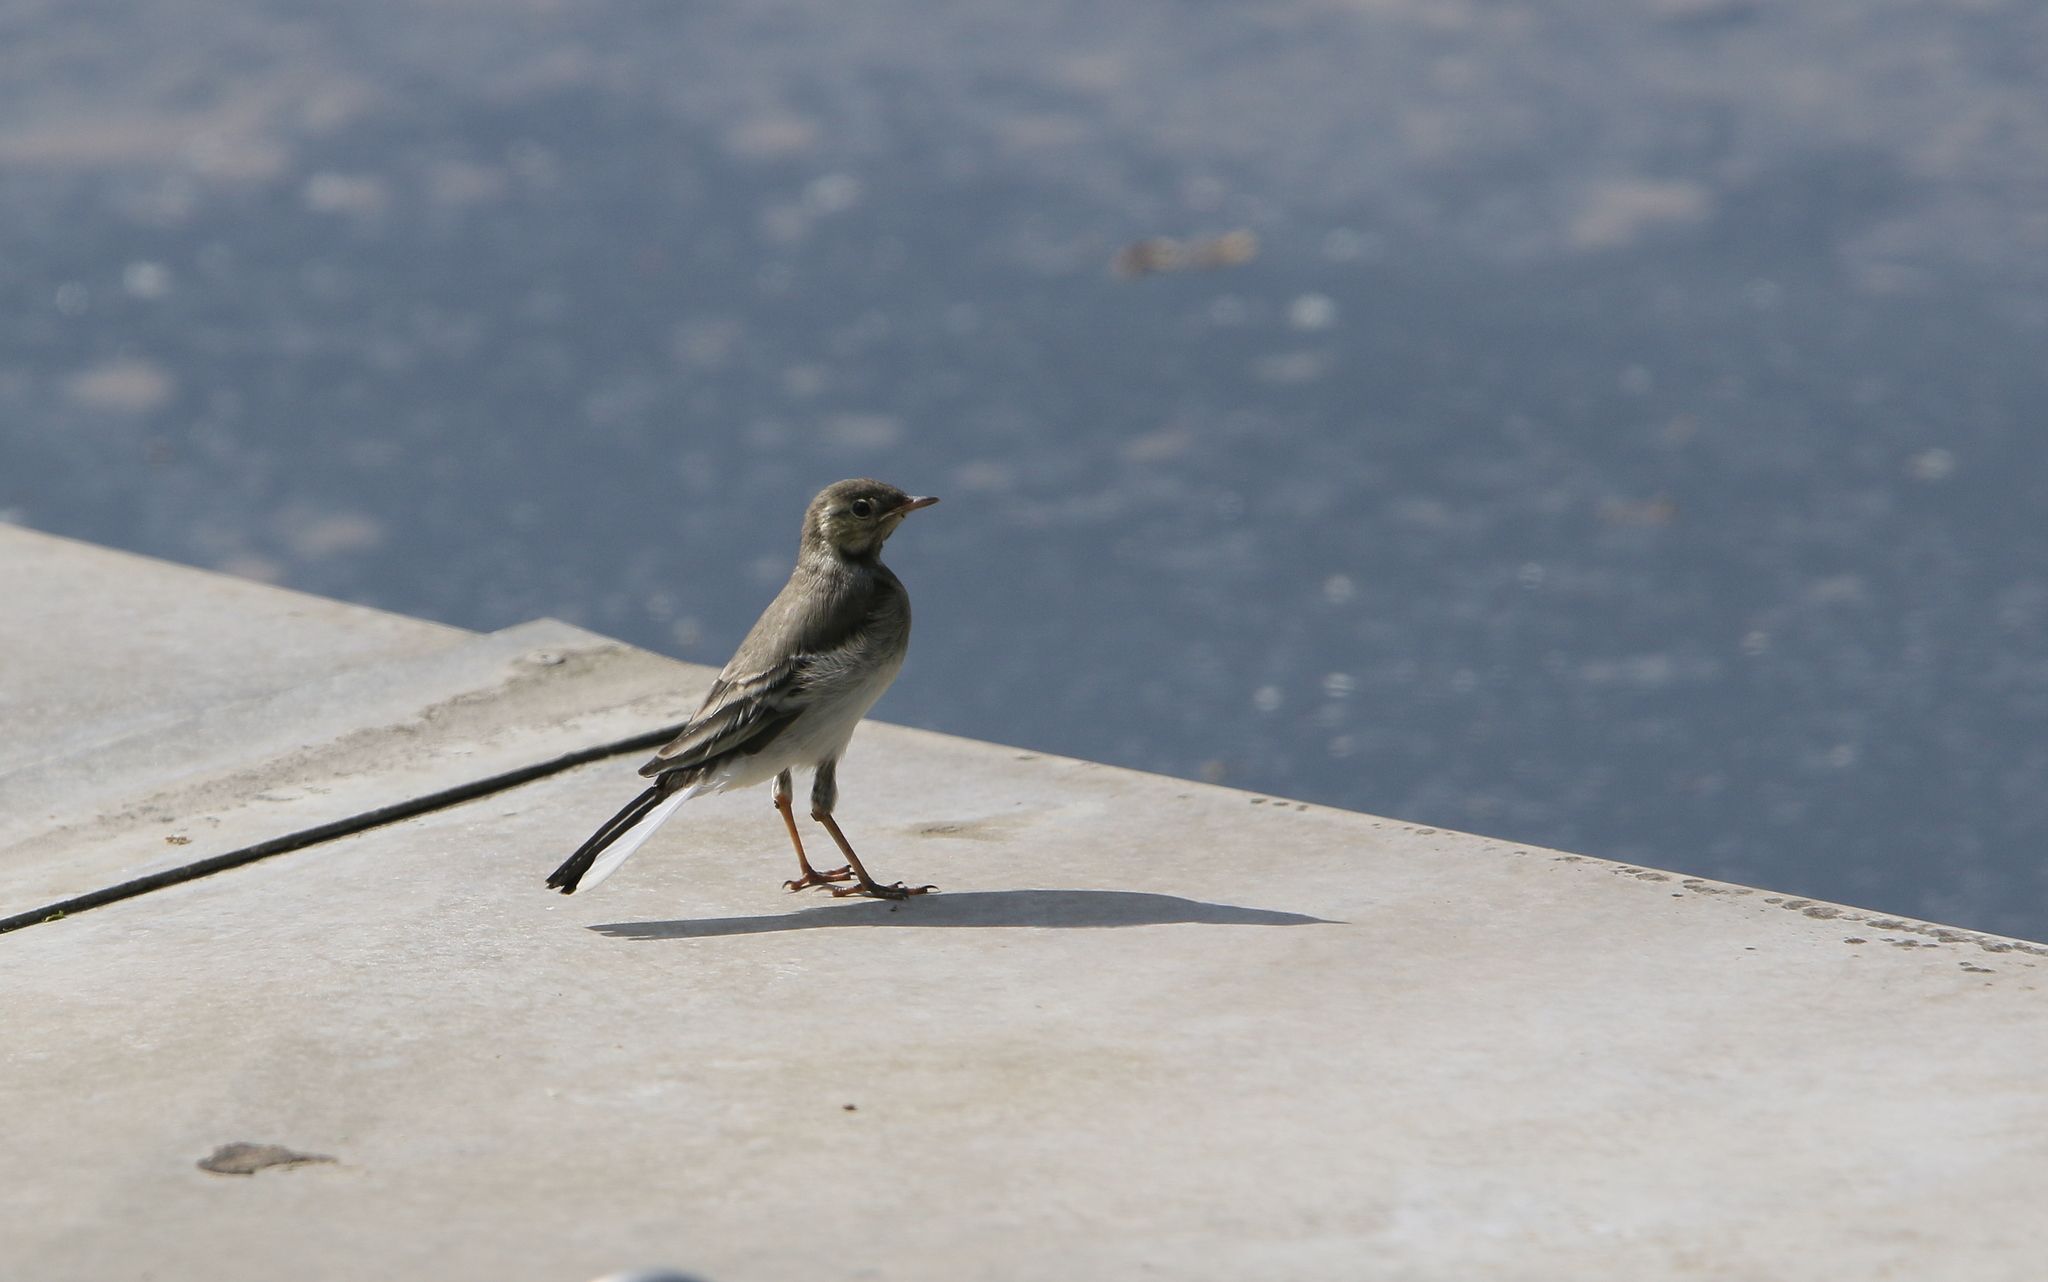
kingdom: Animalia
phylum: Chordata
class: Aves
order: Passeriformes
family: Motacillidae
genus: Motacilla
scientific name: Motacilla alba
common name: White wagtail
